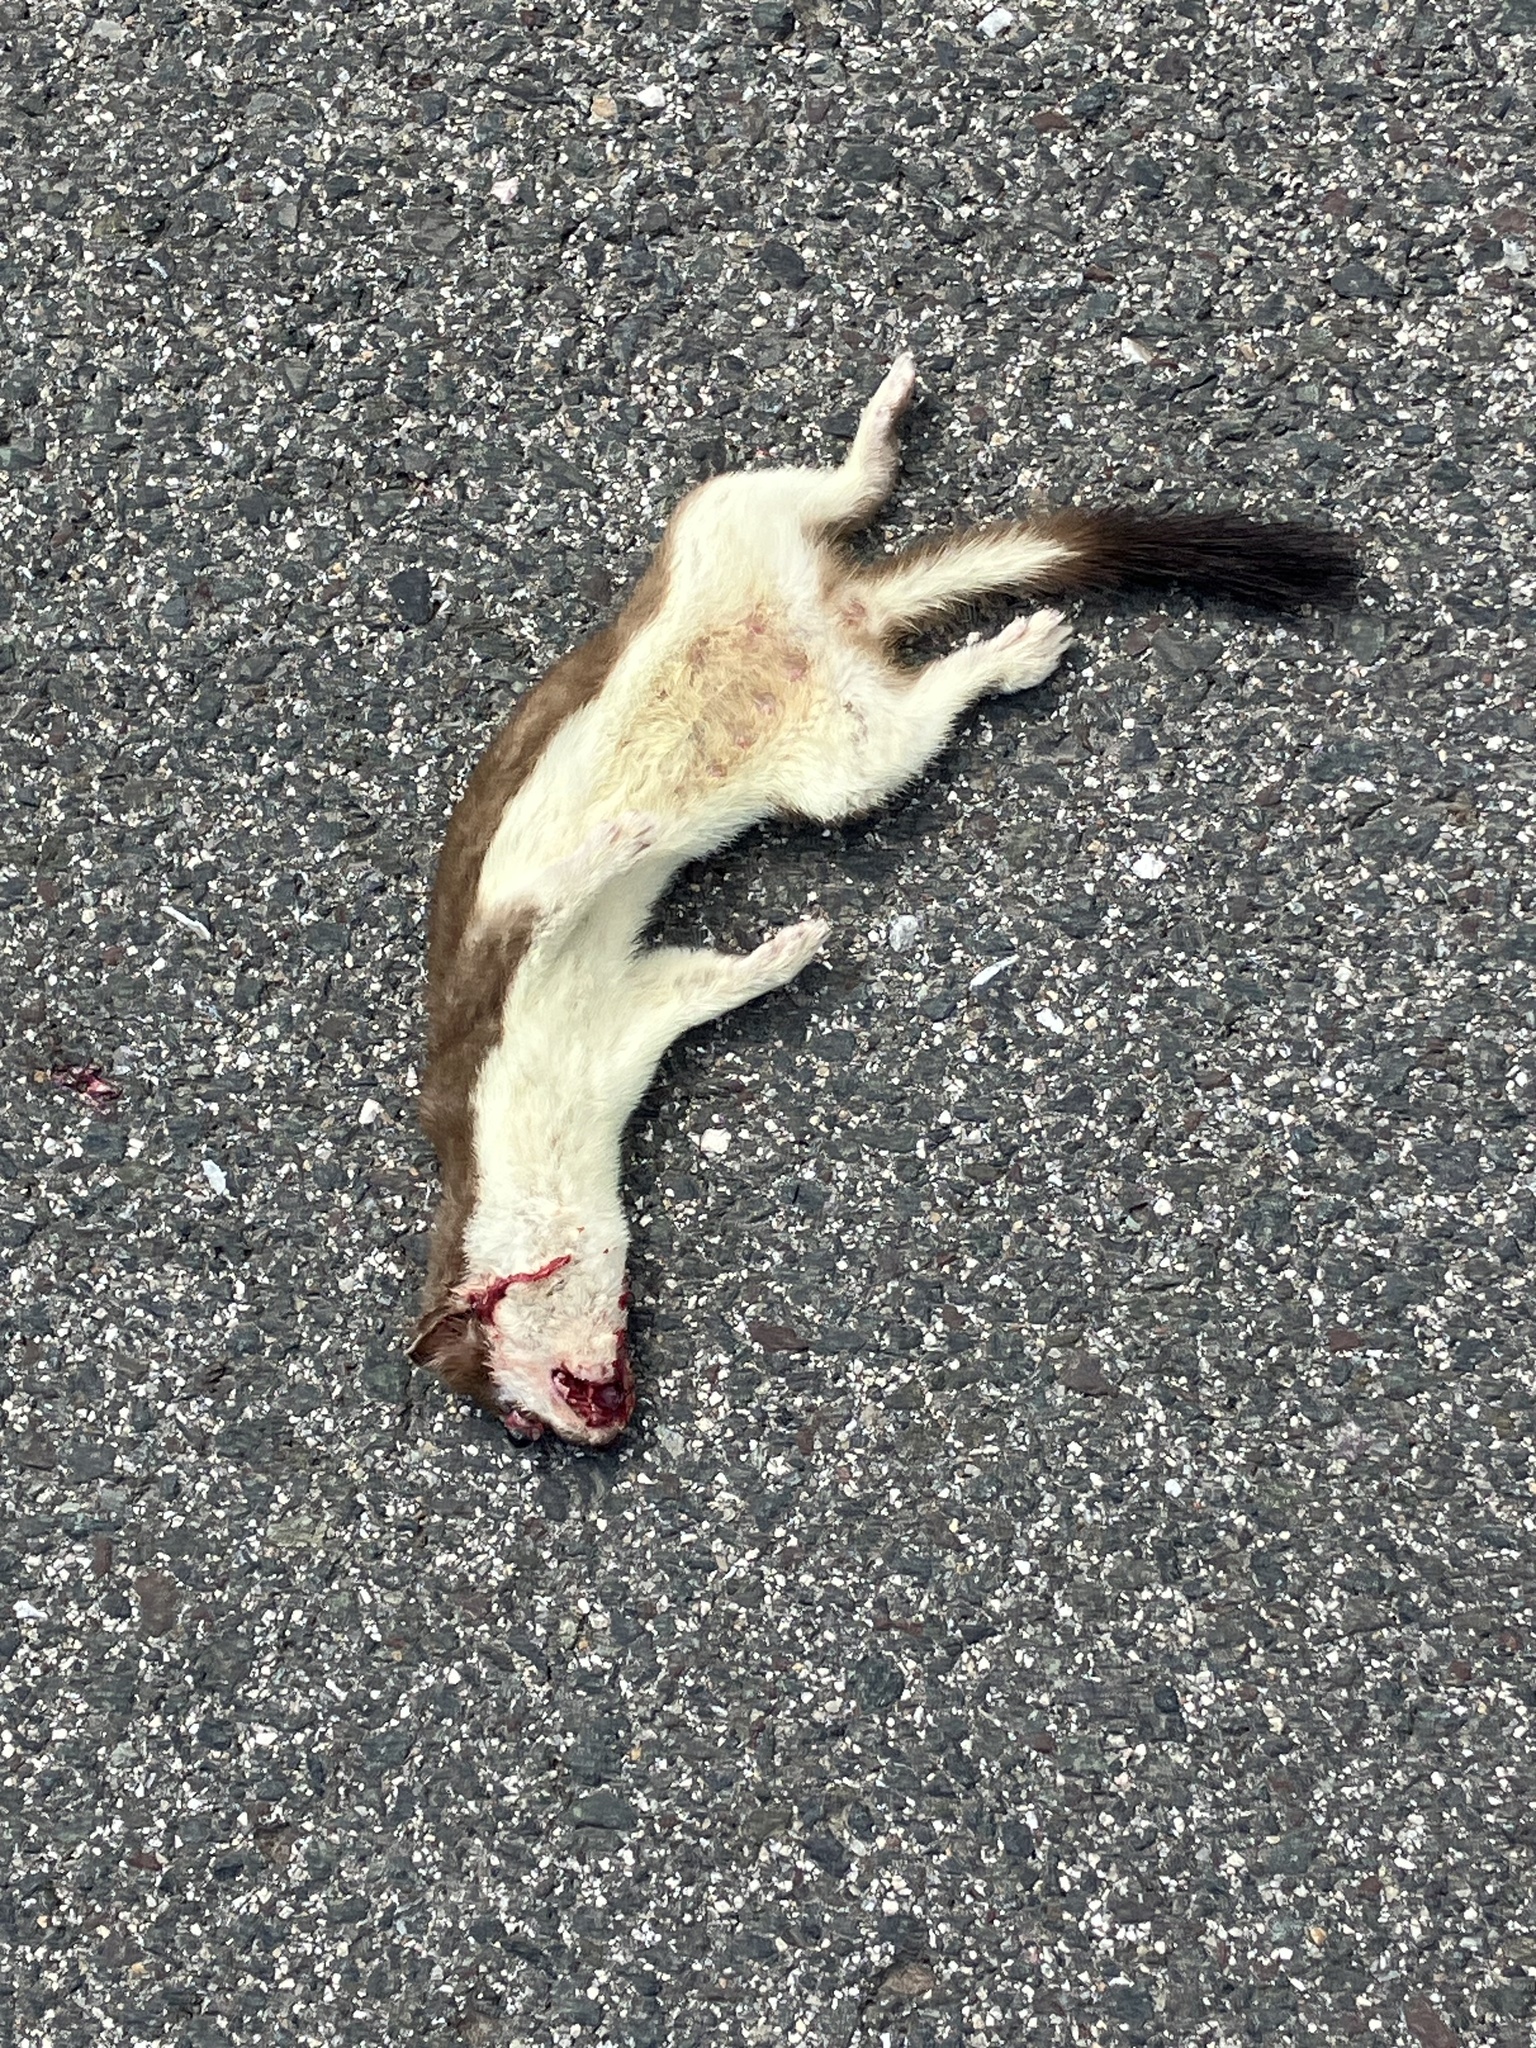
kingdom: Animalia
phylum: Chordata
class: Mammalia
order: Carnivora
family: Mustelidae
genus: Mustela
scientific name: Mustela erminea
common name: Stoat
